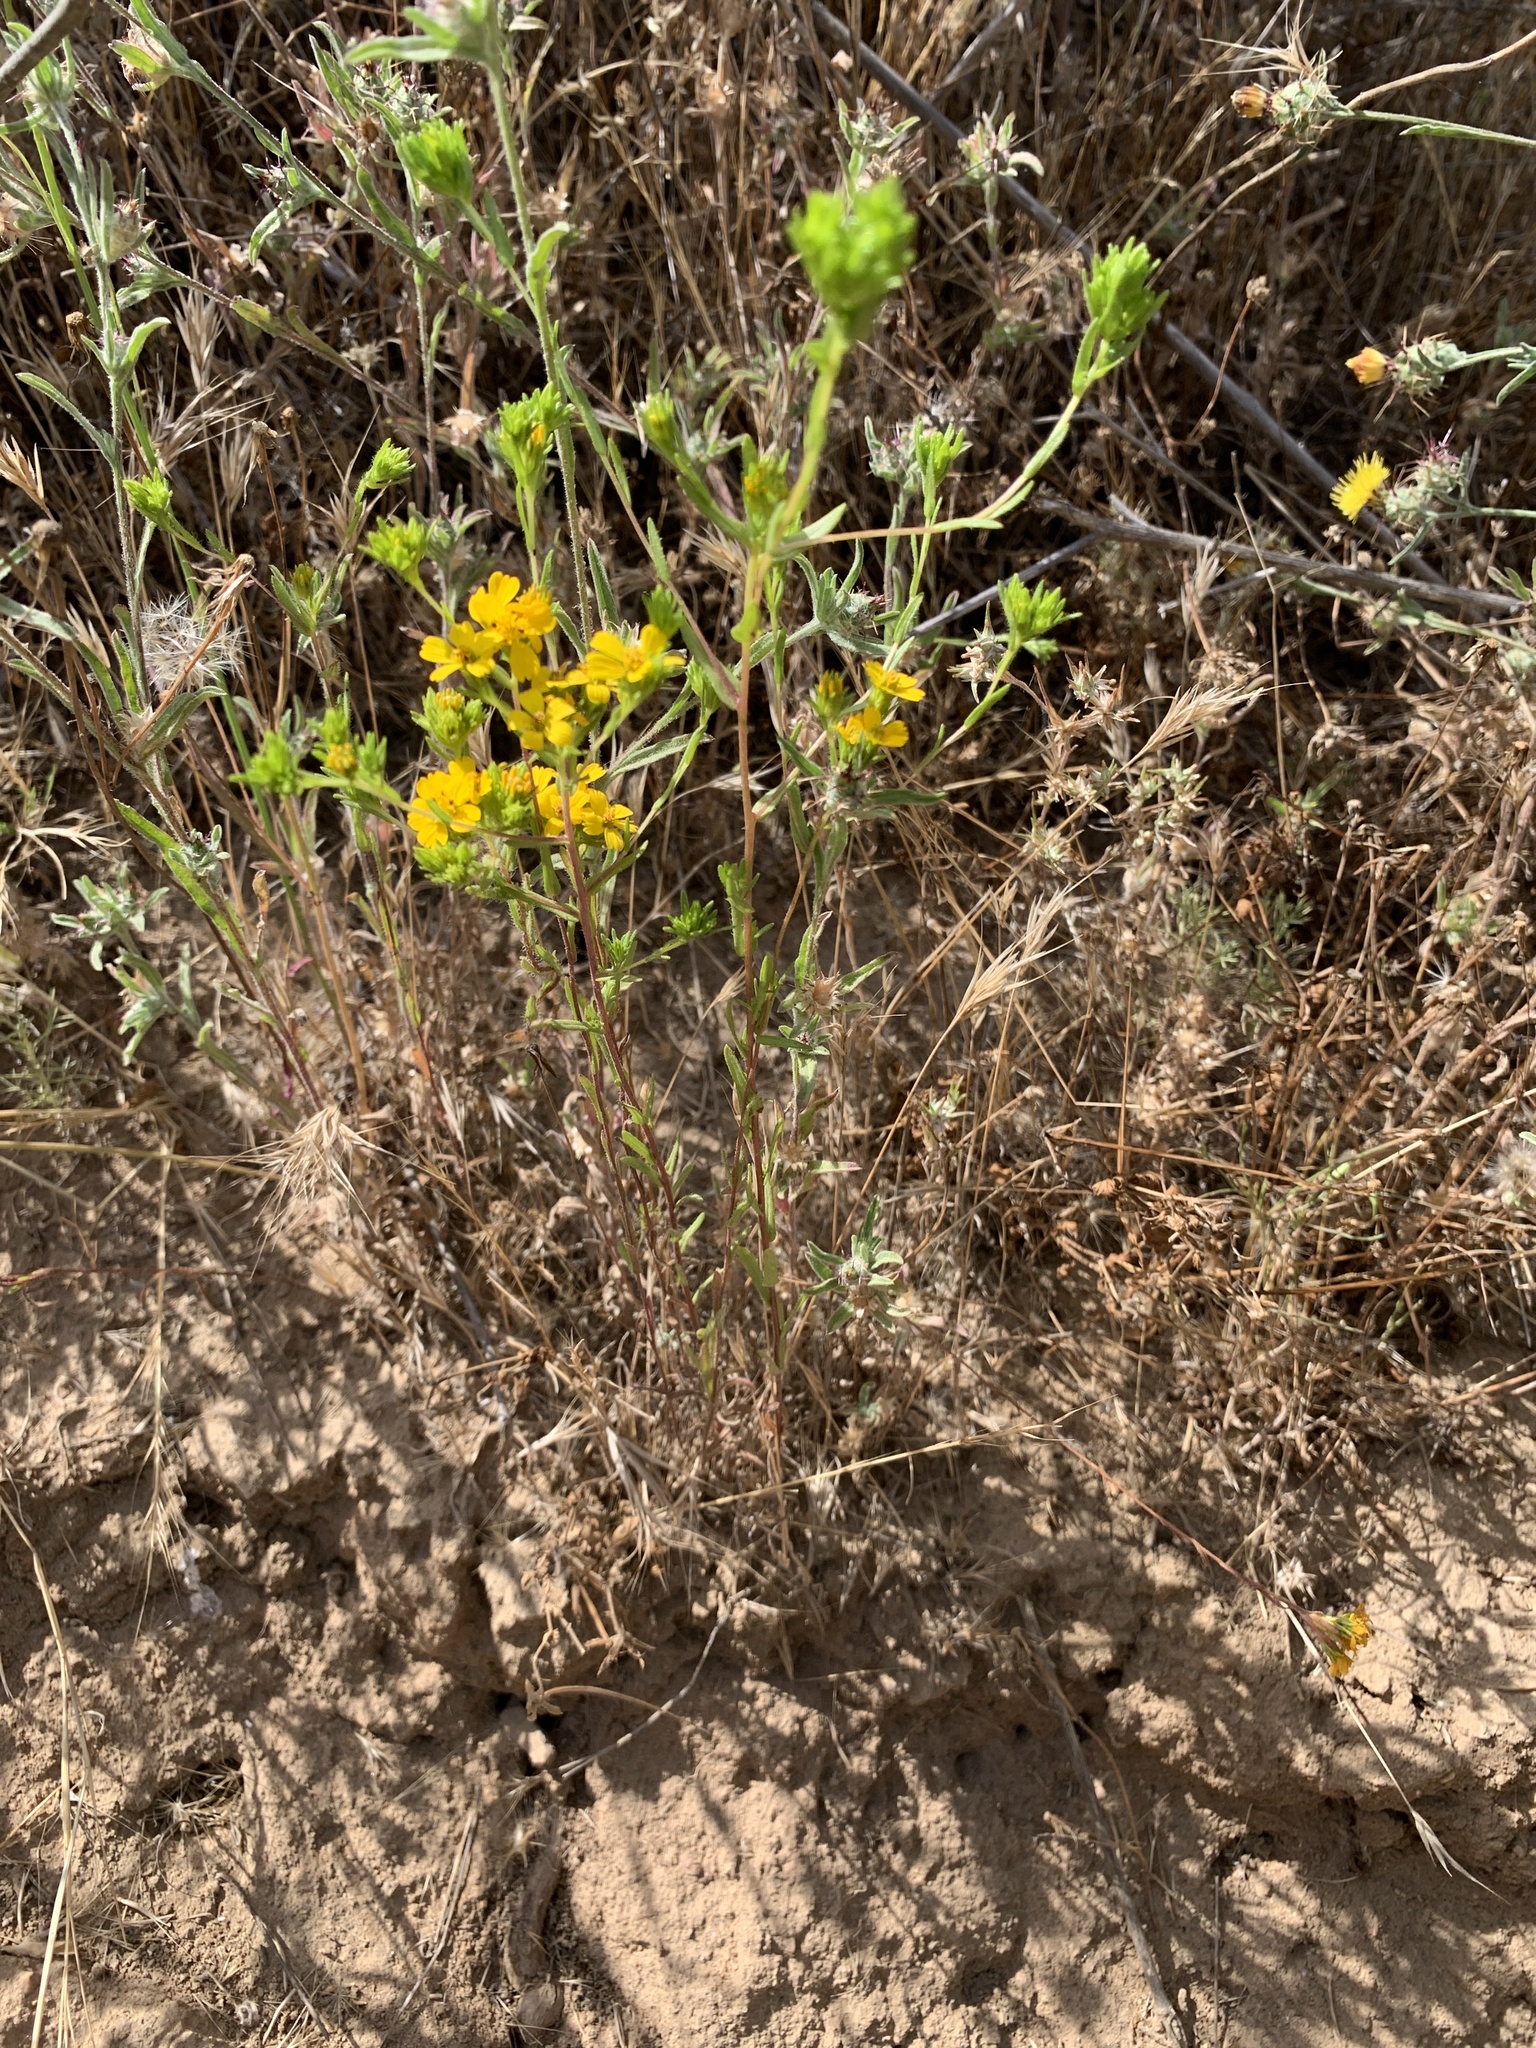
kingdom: Plantae
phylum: Tracheophyta
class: Magnoliopsida
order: Asterales
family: Asteraceae
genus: Deinandra
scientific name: Deinandra fasciculata
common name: Clustered tarweed
